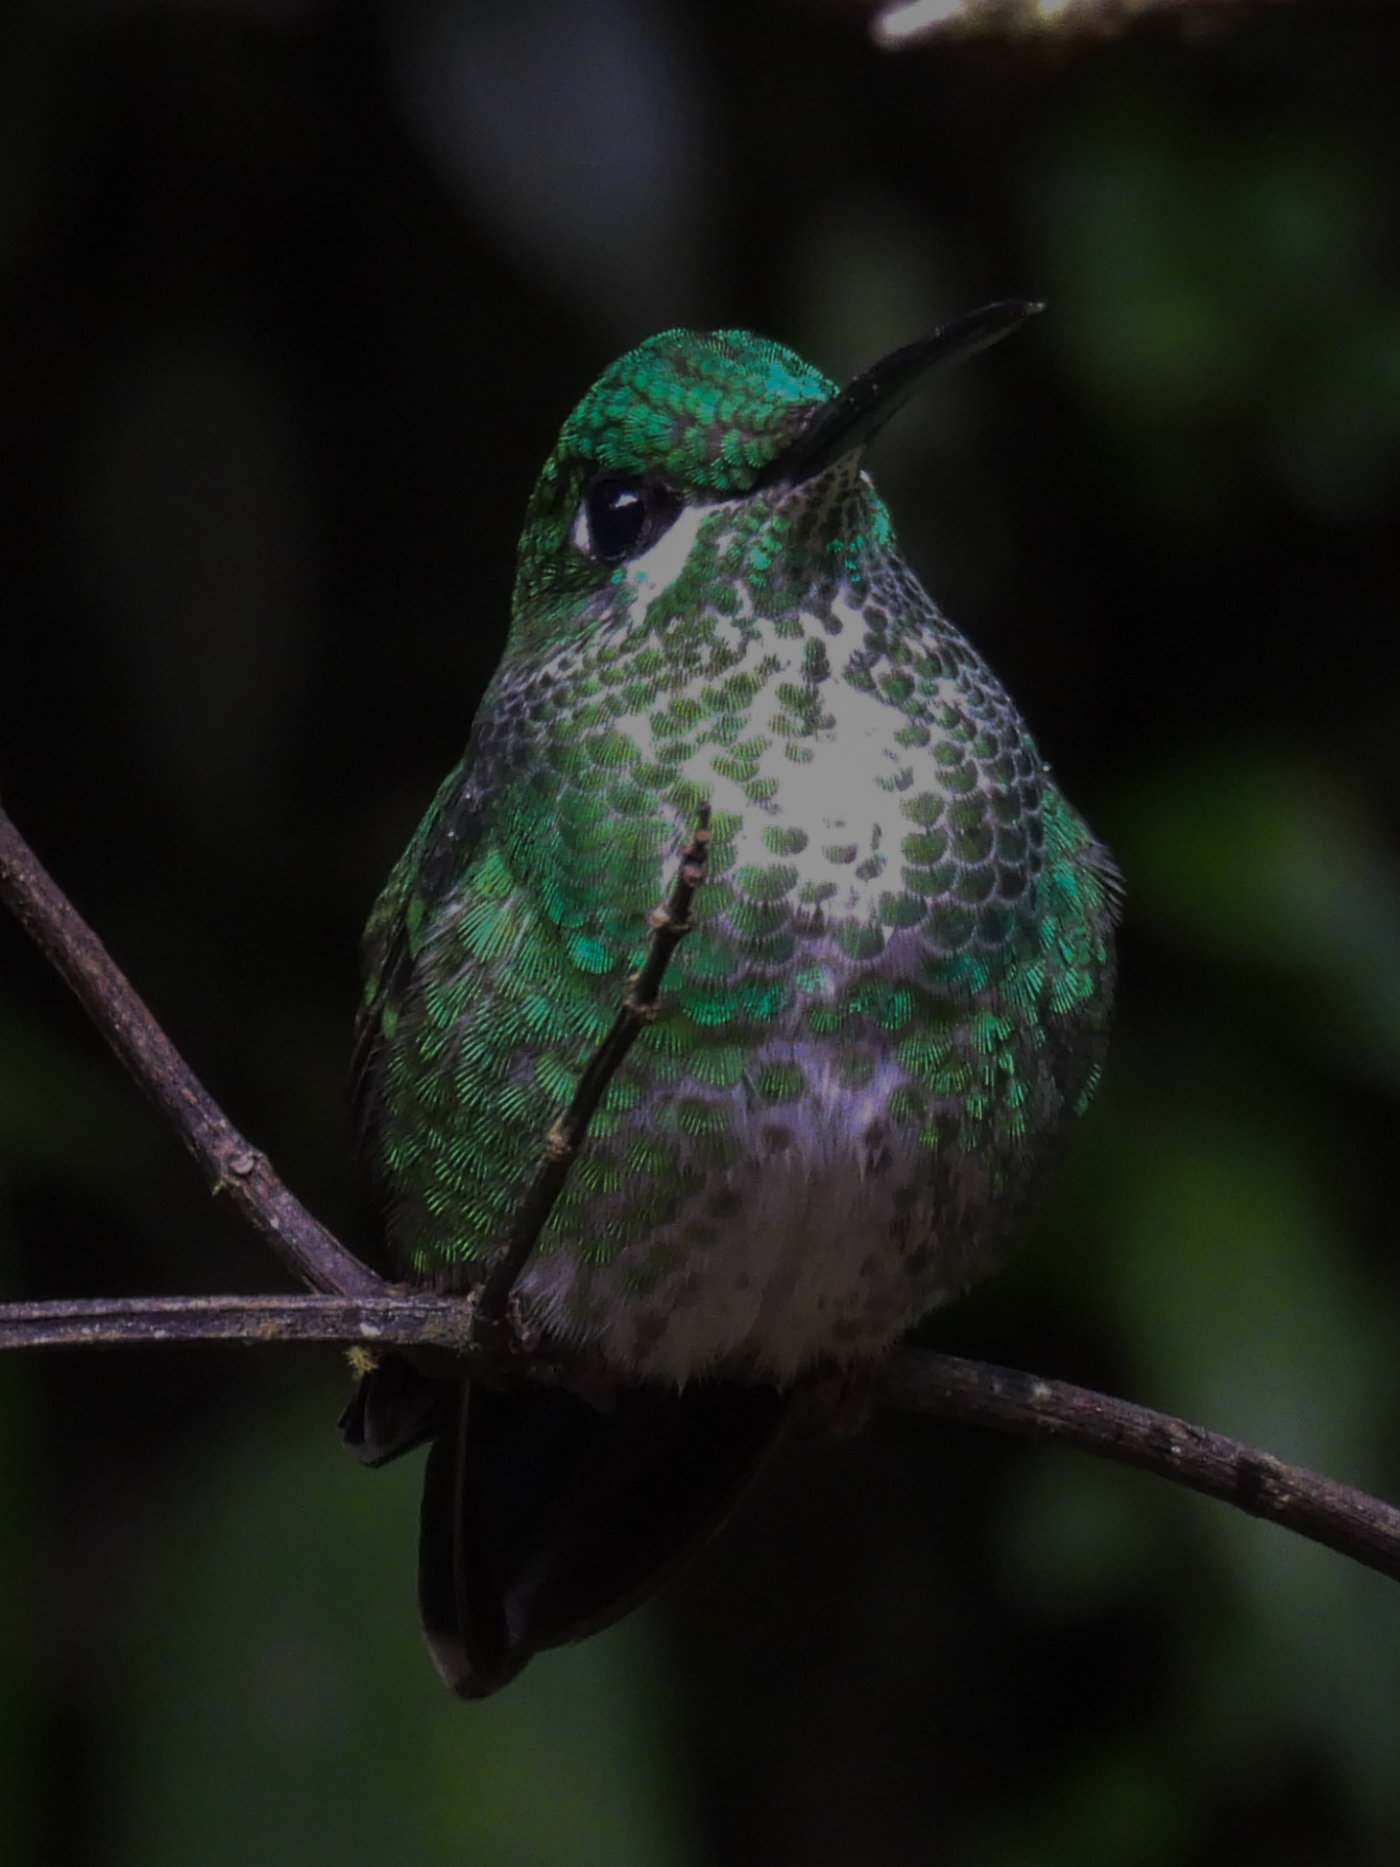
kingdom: Animalia
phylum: Chordata
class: Aves
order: Apodiformes
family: Trochilidae
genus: Heliodoxa
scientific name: Heliodoxa jacula
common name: Green-crowned brilliant
